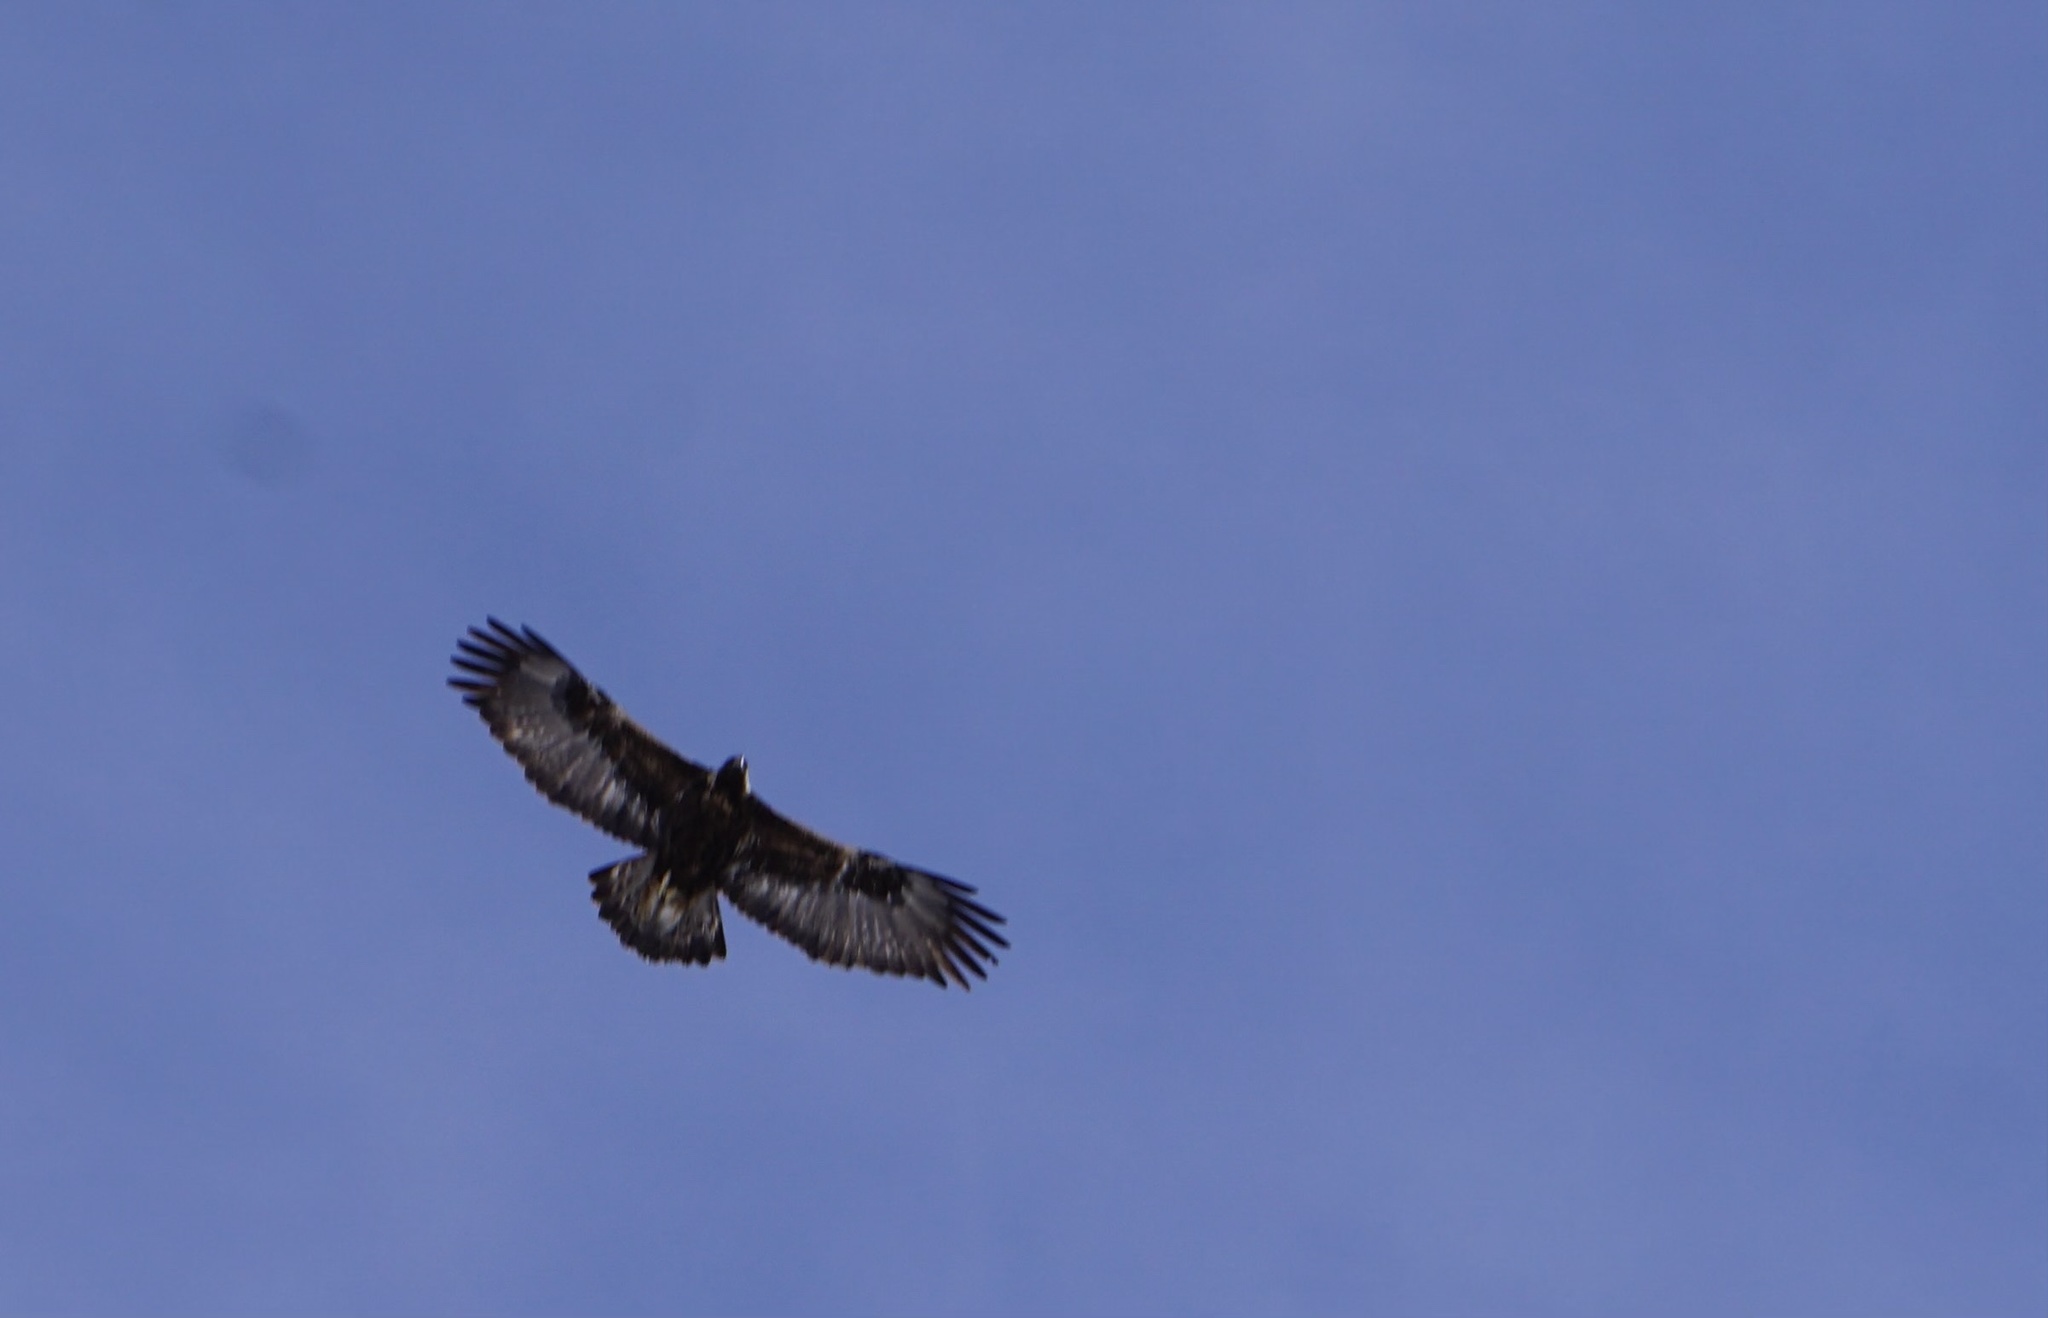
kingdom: Animalia
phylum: Chordata
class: Aves
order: Accipitriformes
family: Accipitridae
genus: Aquila
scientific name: Aquila chrysaetos
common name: Golden eagle
